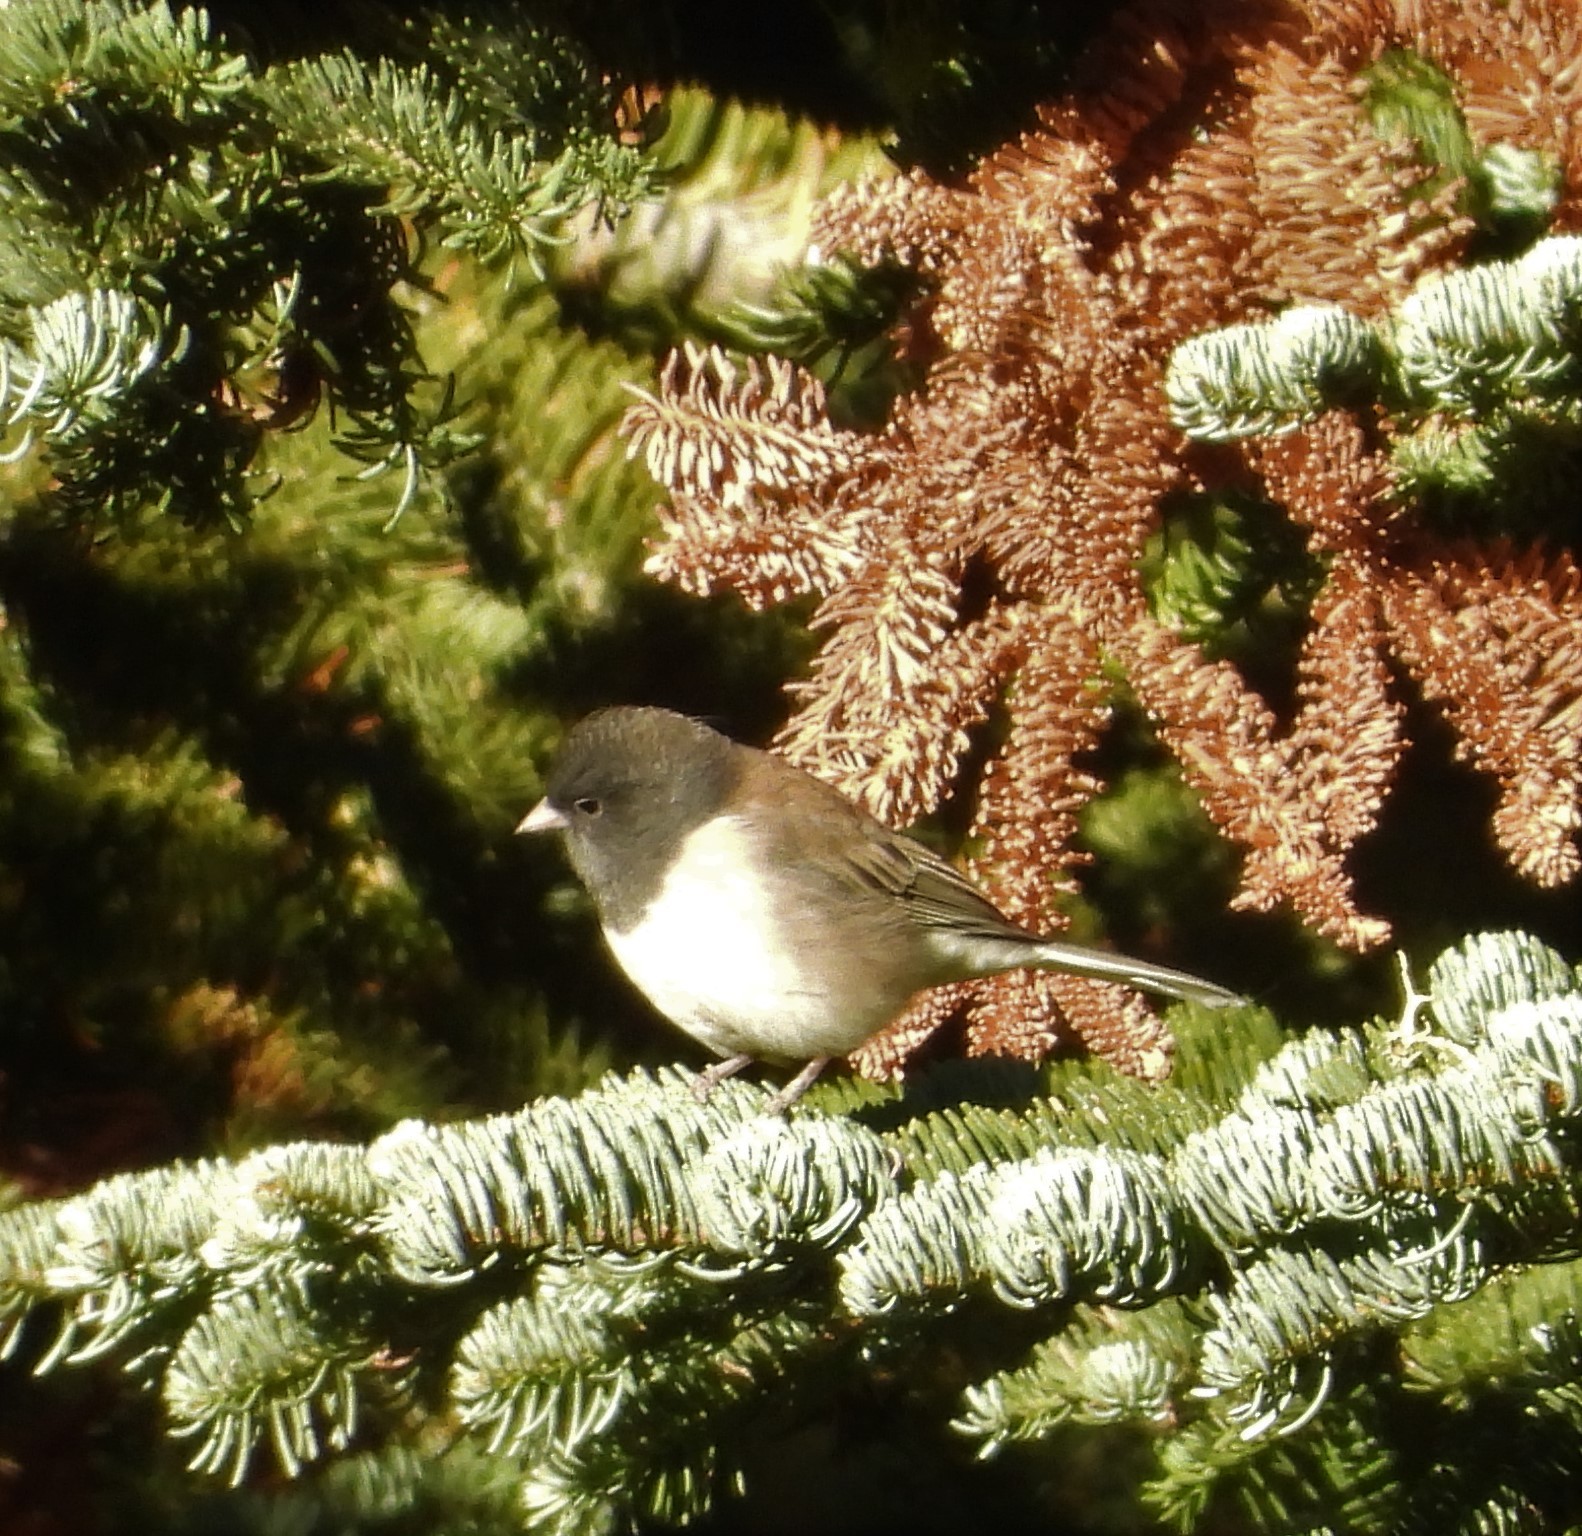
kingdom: Animalia
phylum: Chordata
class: Aves
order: Passeriformes
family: Passerellidae
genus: Junco
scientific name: Junco hyemalis
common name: Dark-eyed junco
